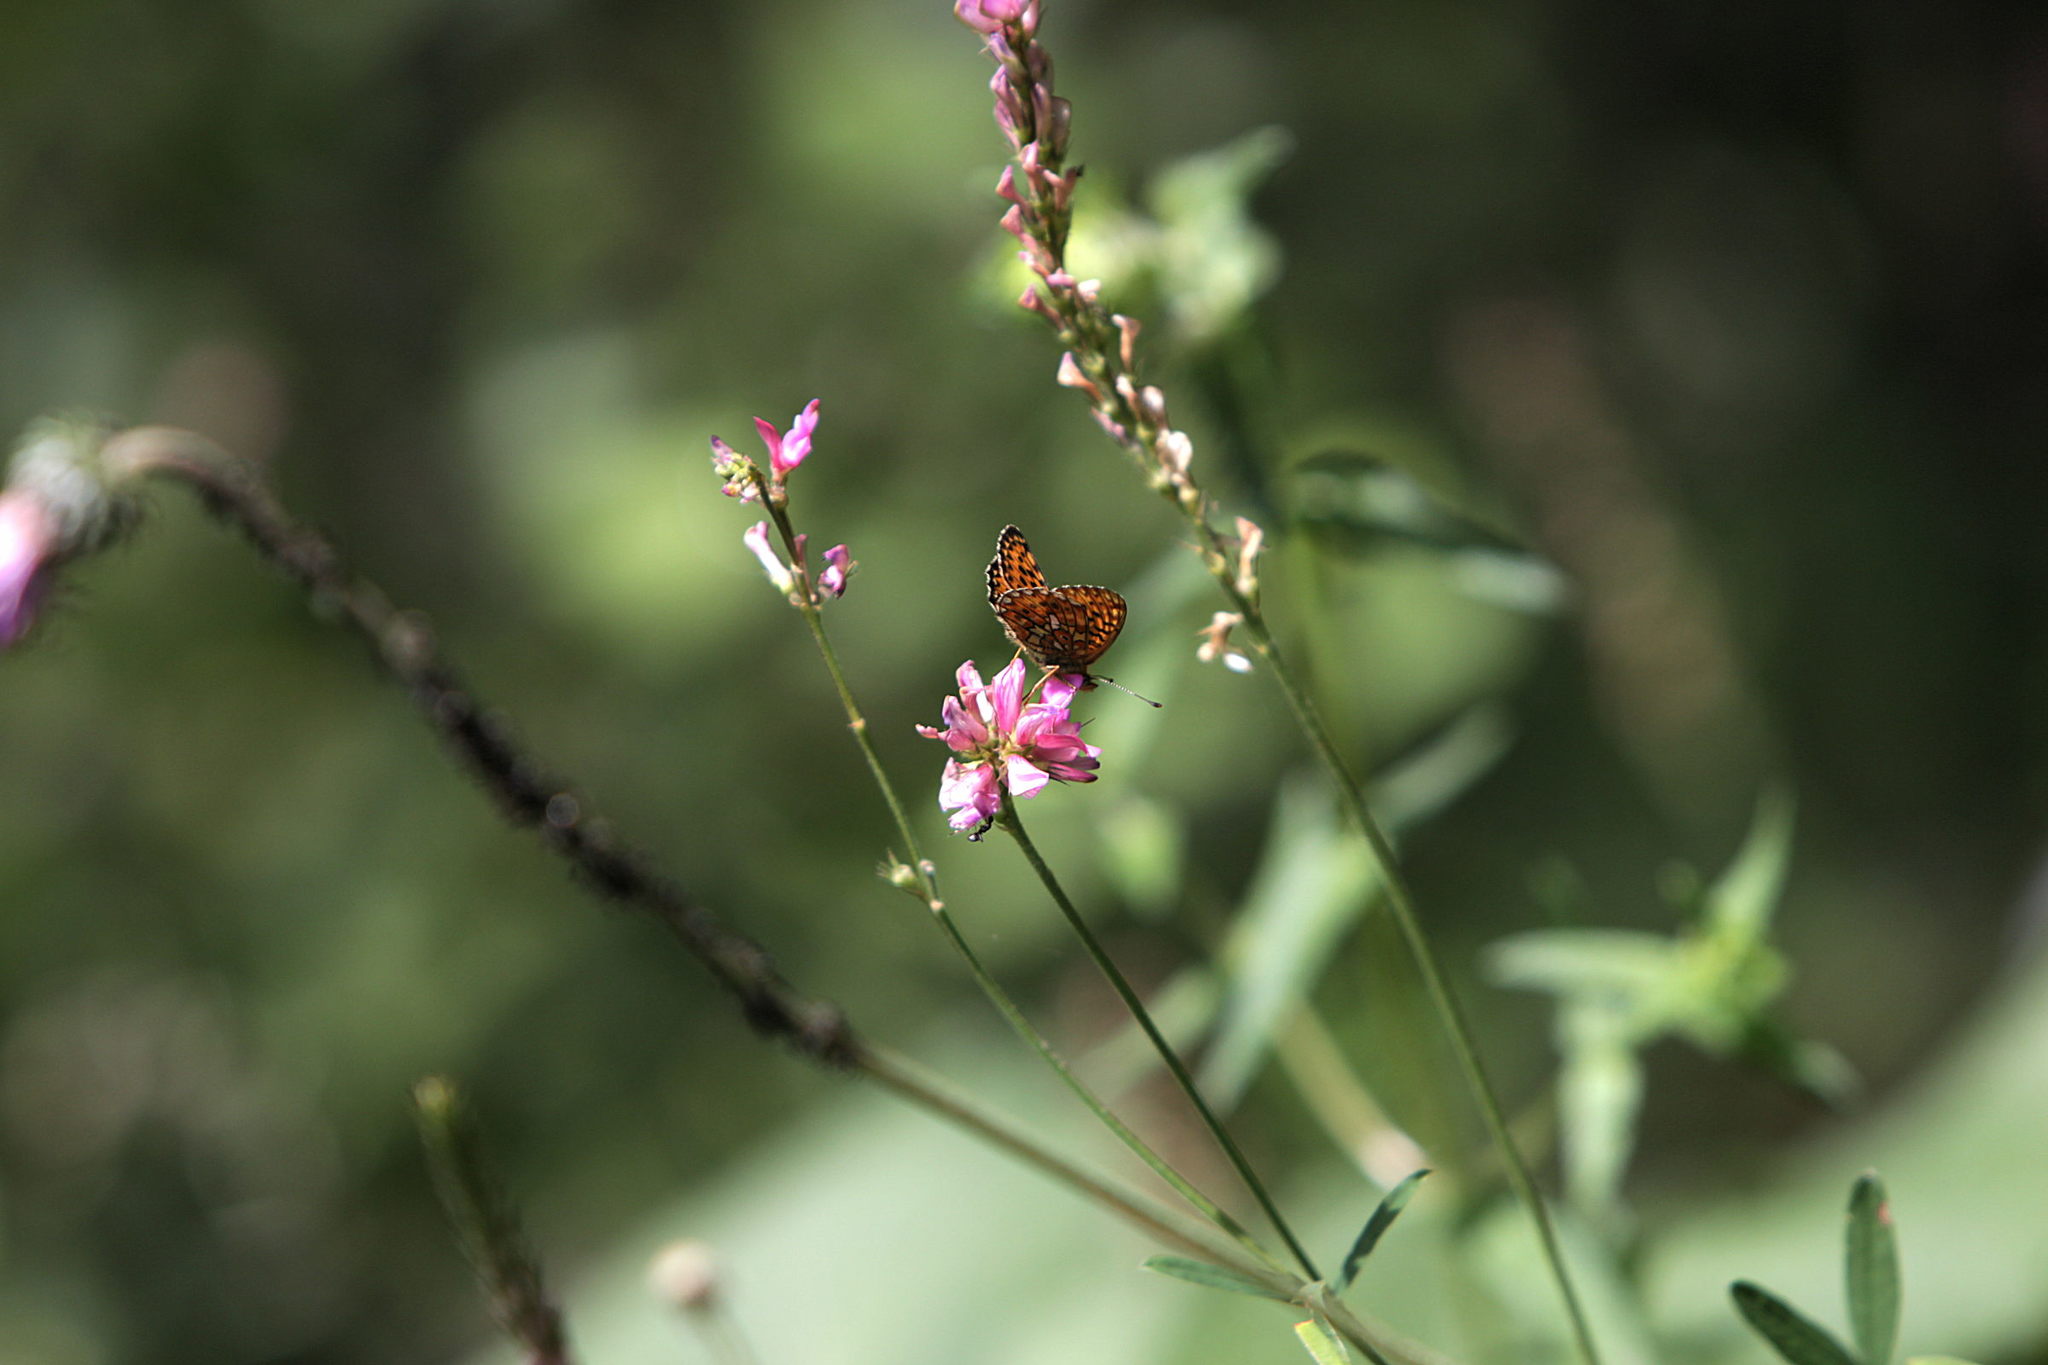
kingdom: Animalia
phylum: Arthropoda
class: Insecta
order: Lepidoptera
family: Nymphalidae
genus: Clossiana
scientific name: Clossiana euphrosyne
